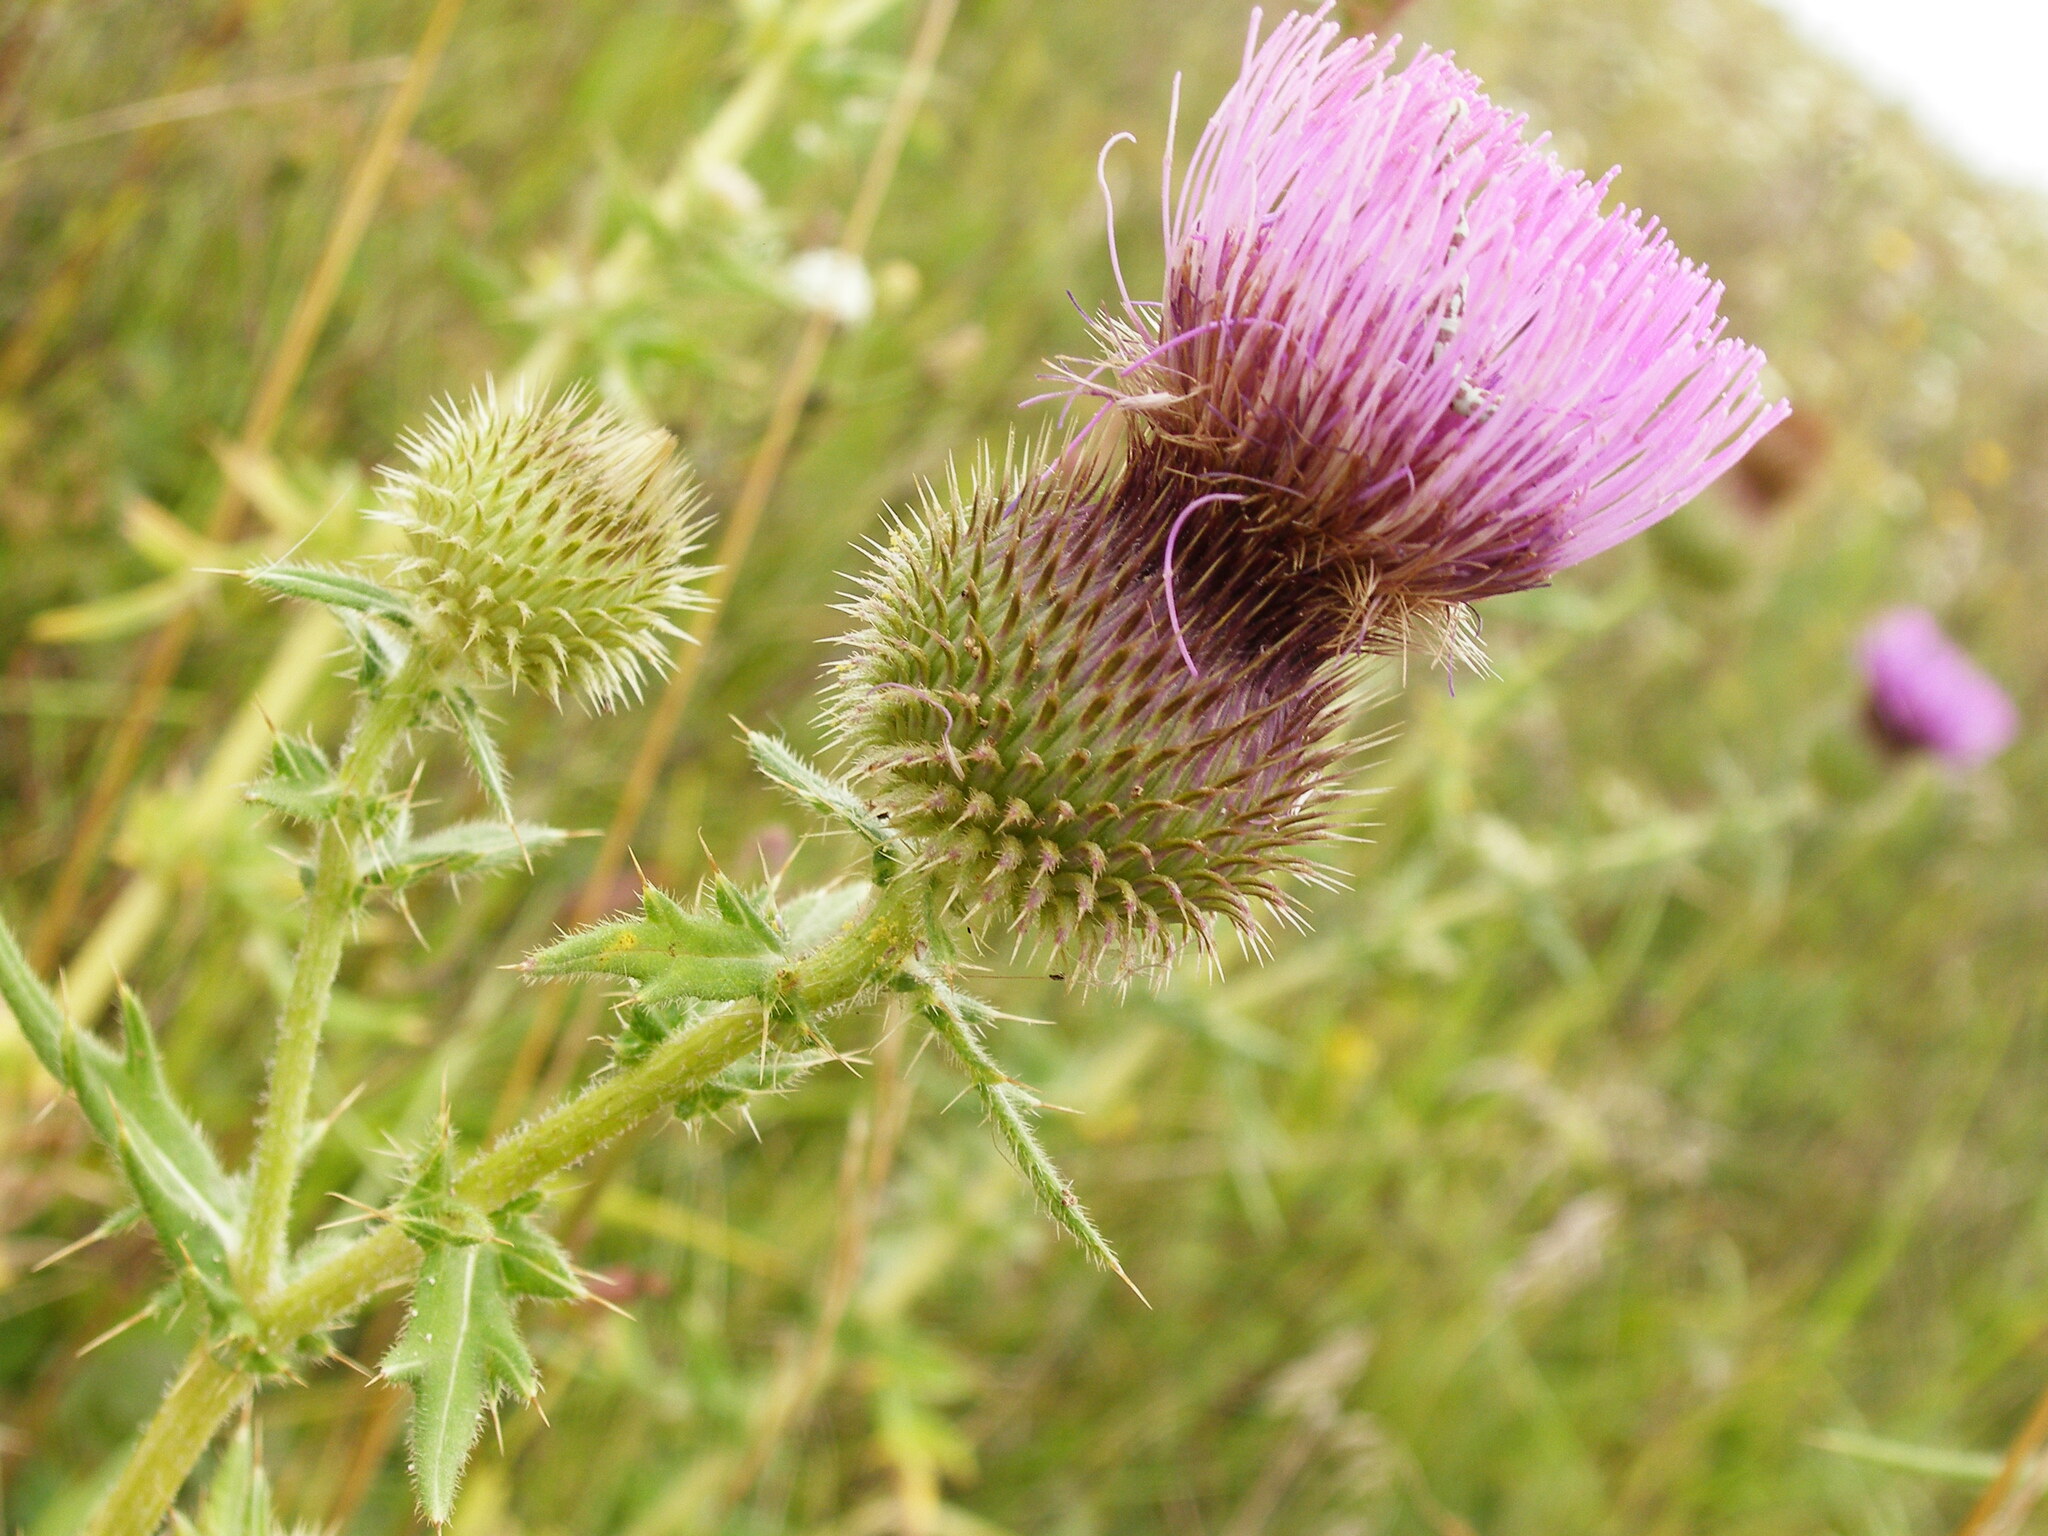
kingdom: Plantae
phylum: Tracheophyta
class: Magnoliopsida
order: Asterales
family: Asteraceae
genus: Lophiolepis
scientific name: Lophiolepis ciliata
